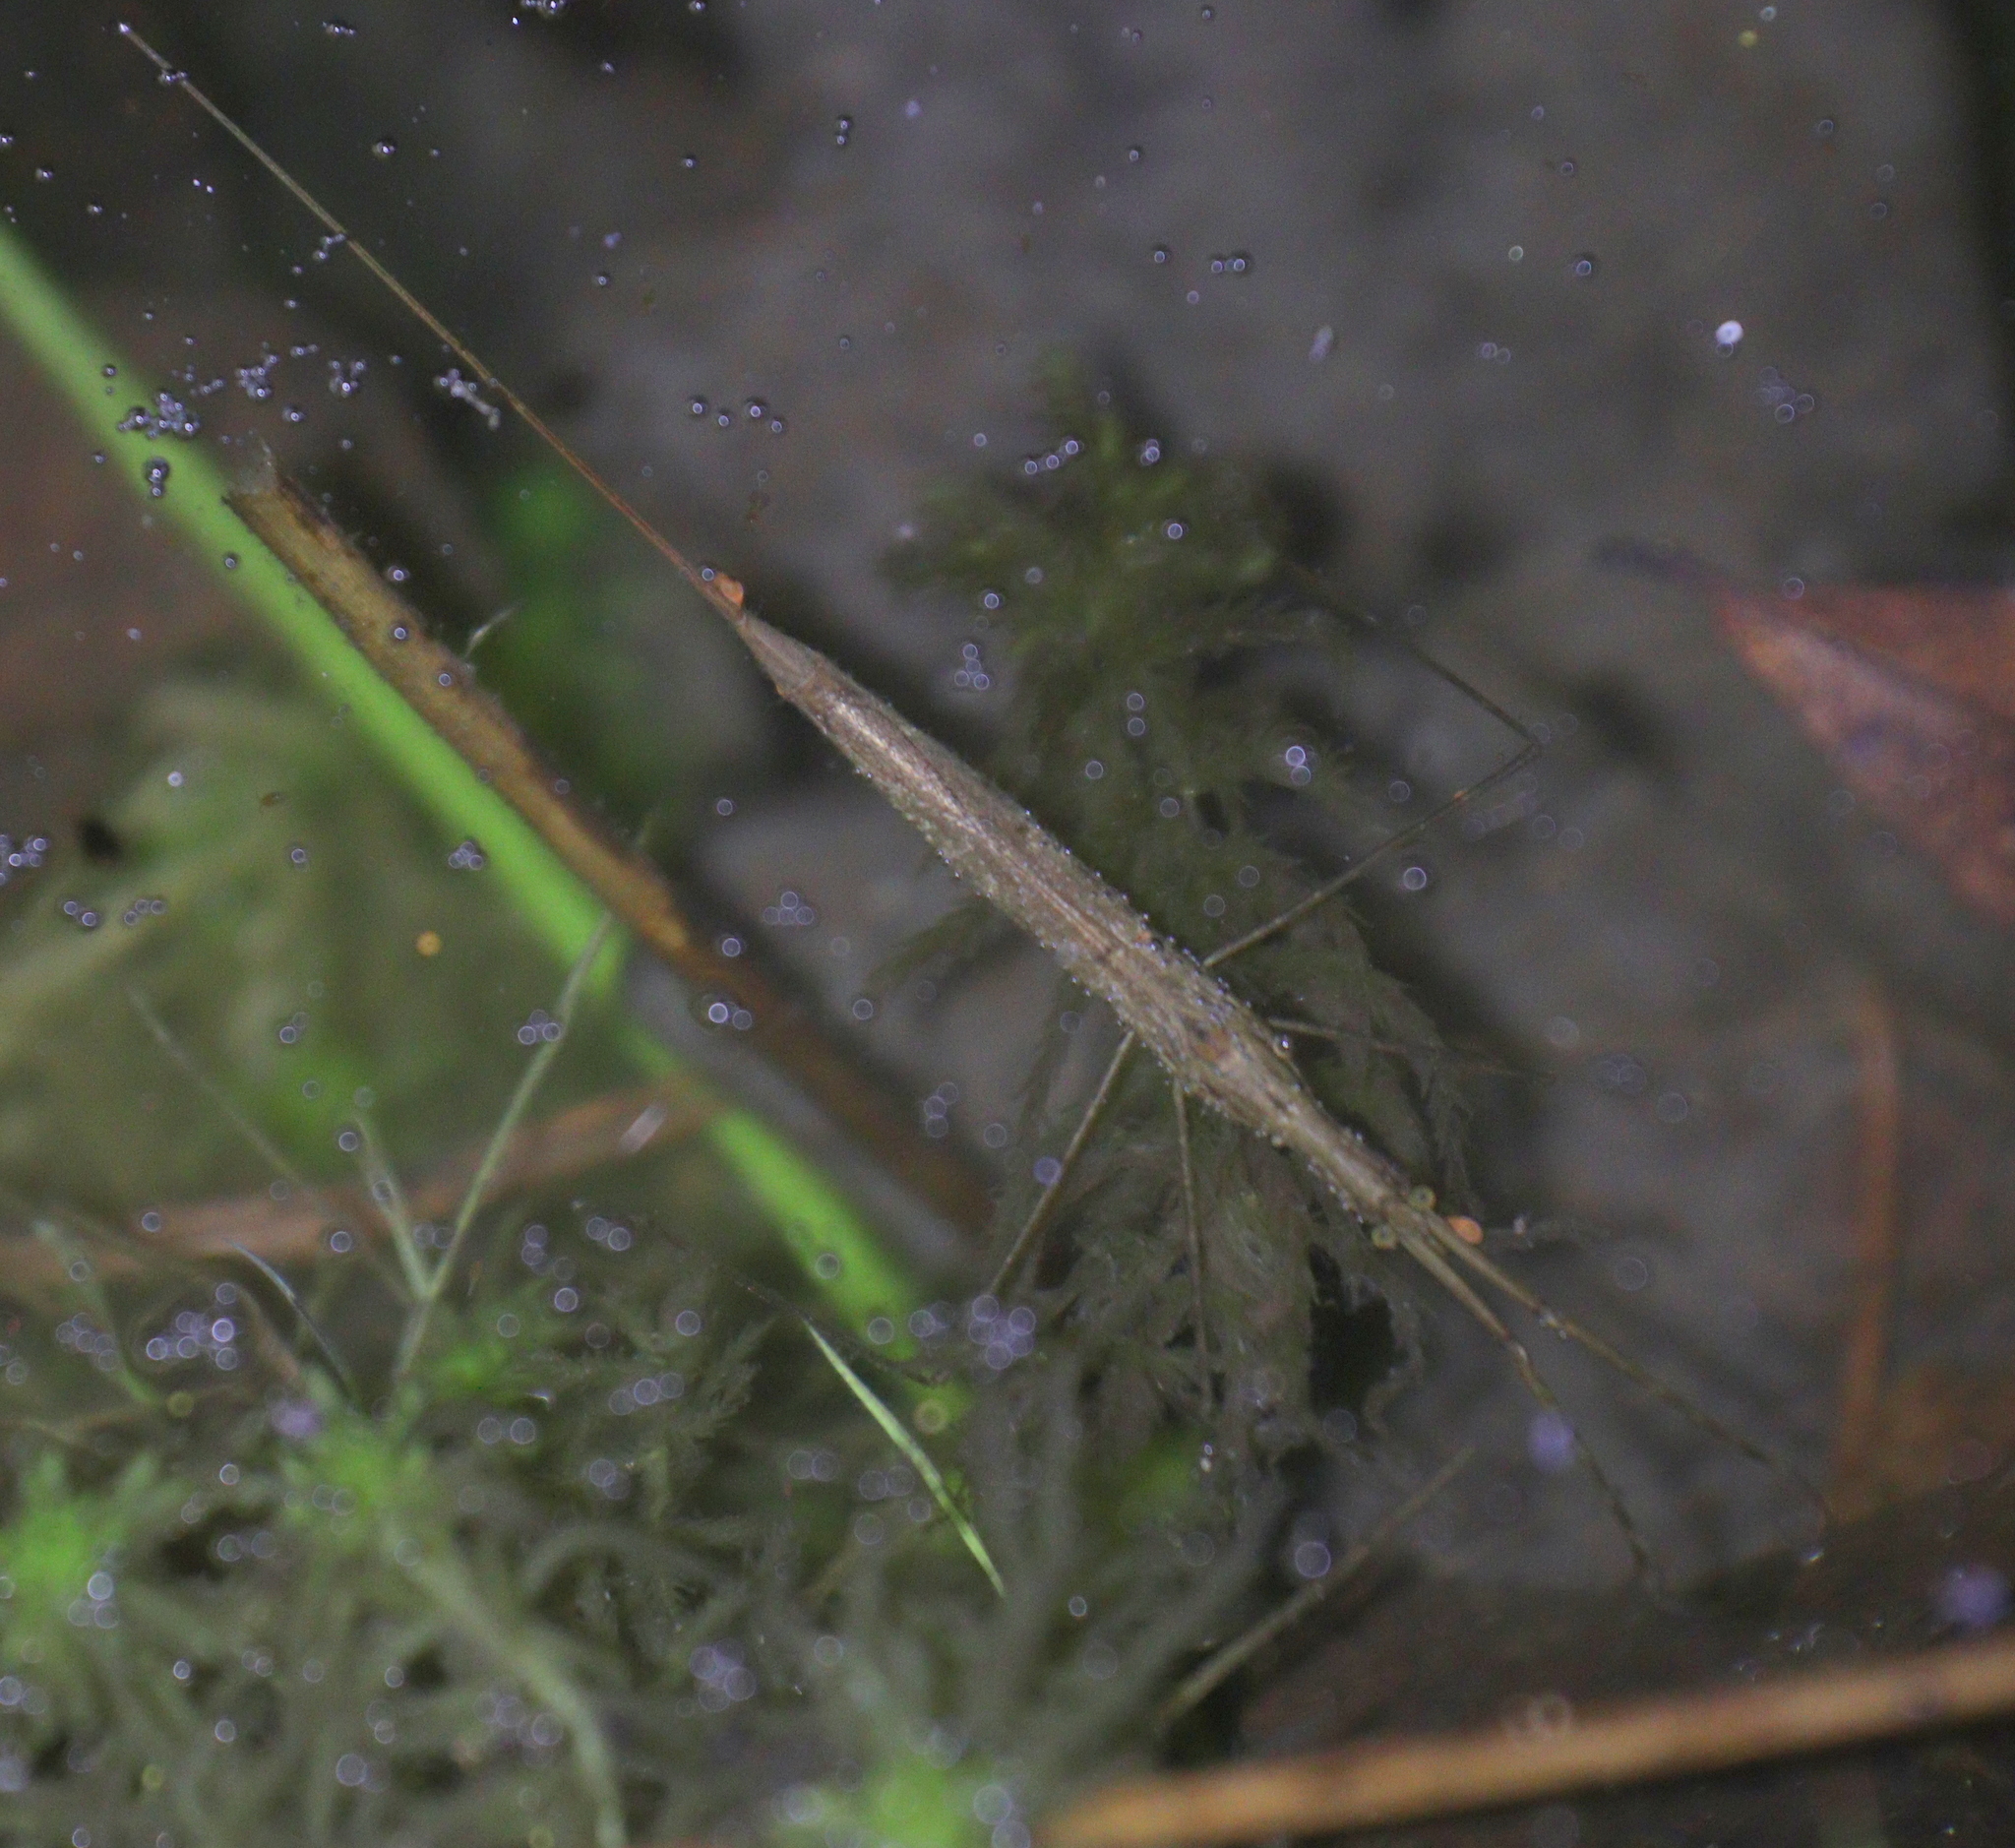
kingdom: Animalia
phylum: Arthropoda
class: Insecta
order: Hemiptera
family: Nepidae
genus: Ranatra
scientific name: Ranatra linearis
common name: Water stick insect
